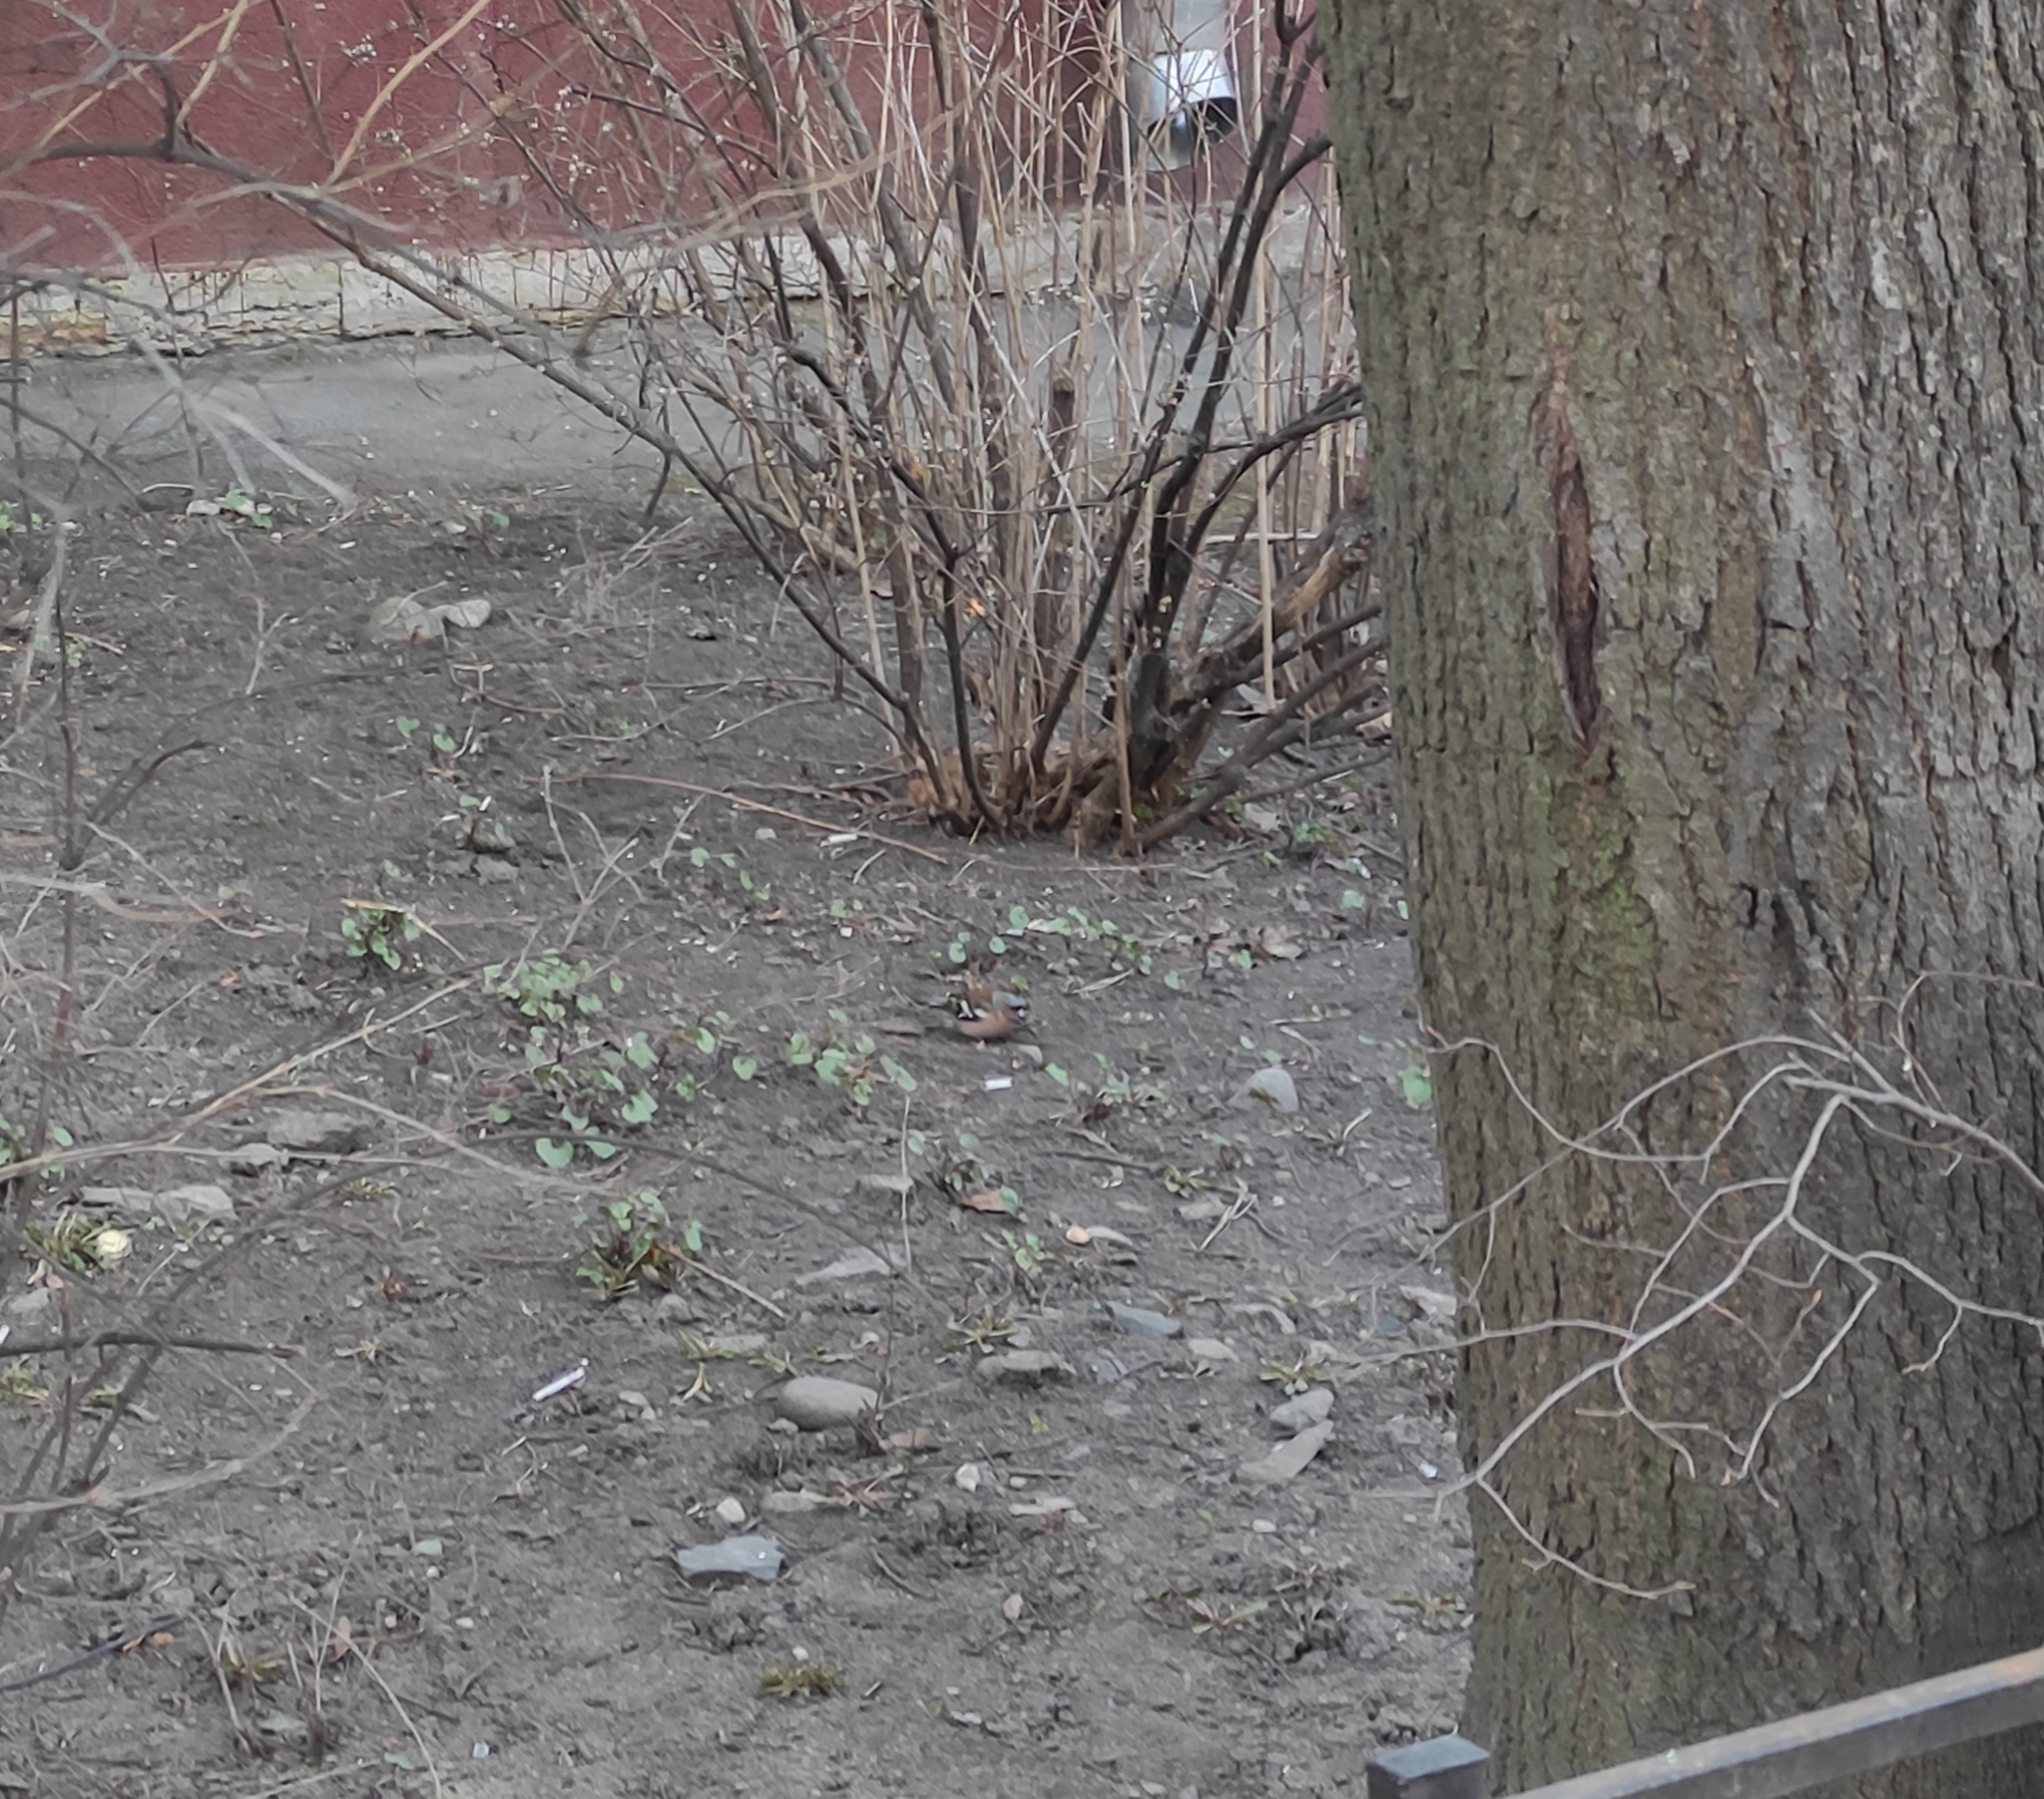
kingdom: Animalia
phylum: Chordata
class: Aves
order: Passeriformes
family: Fringillidae
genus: Fringilla
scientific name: Fringilla coelebs
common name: Common chaffinch
